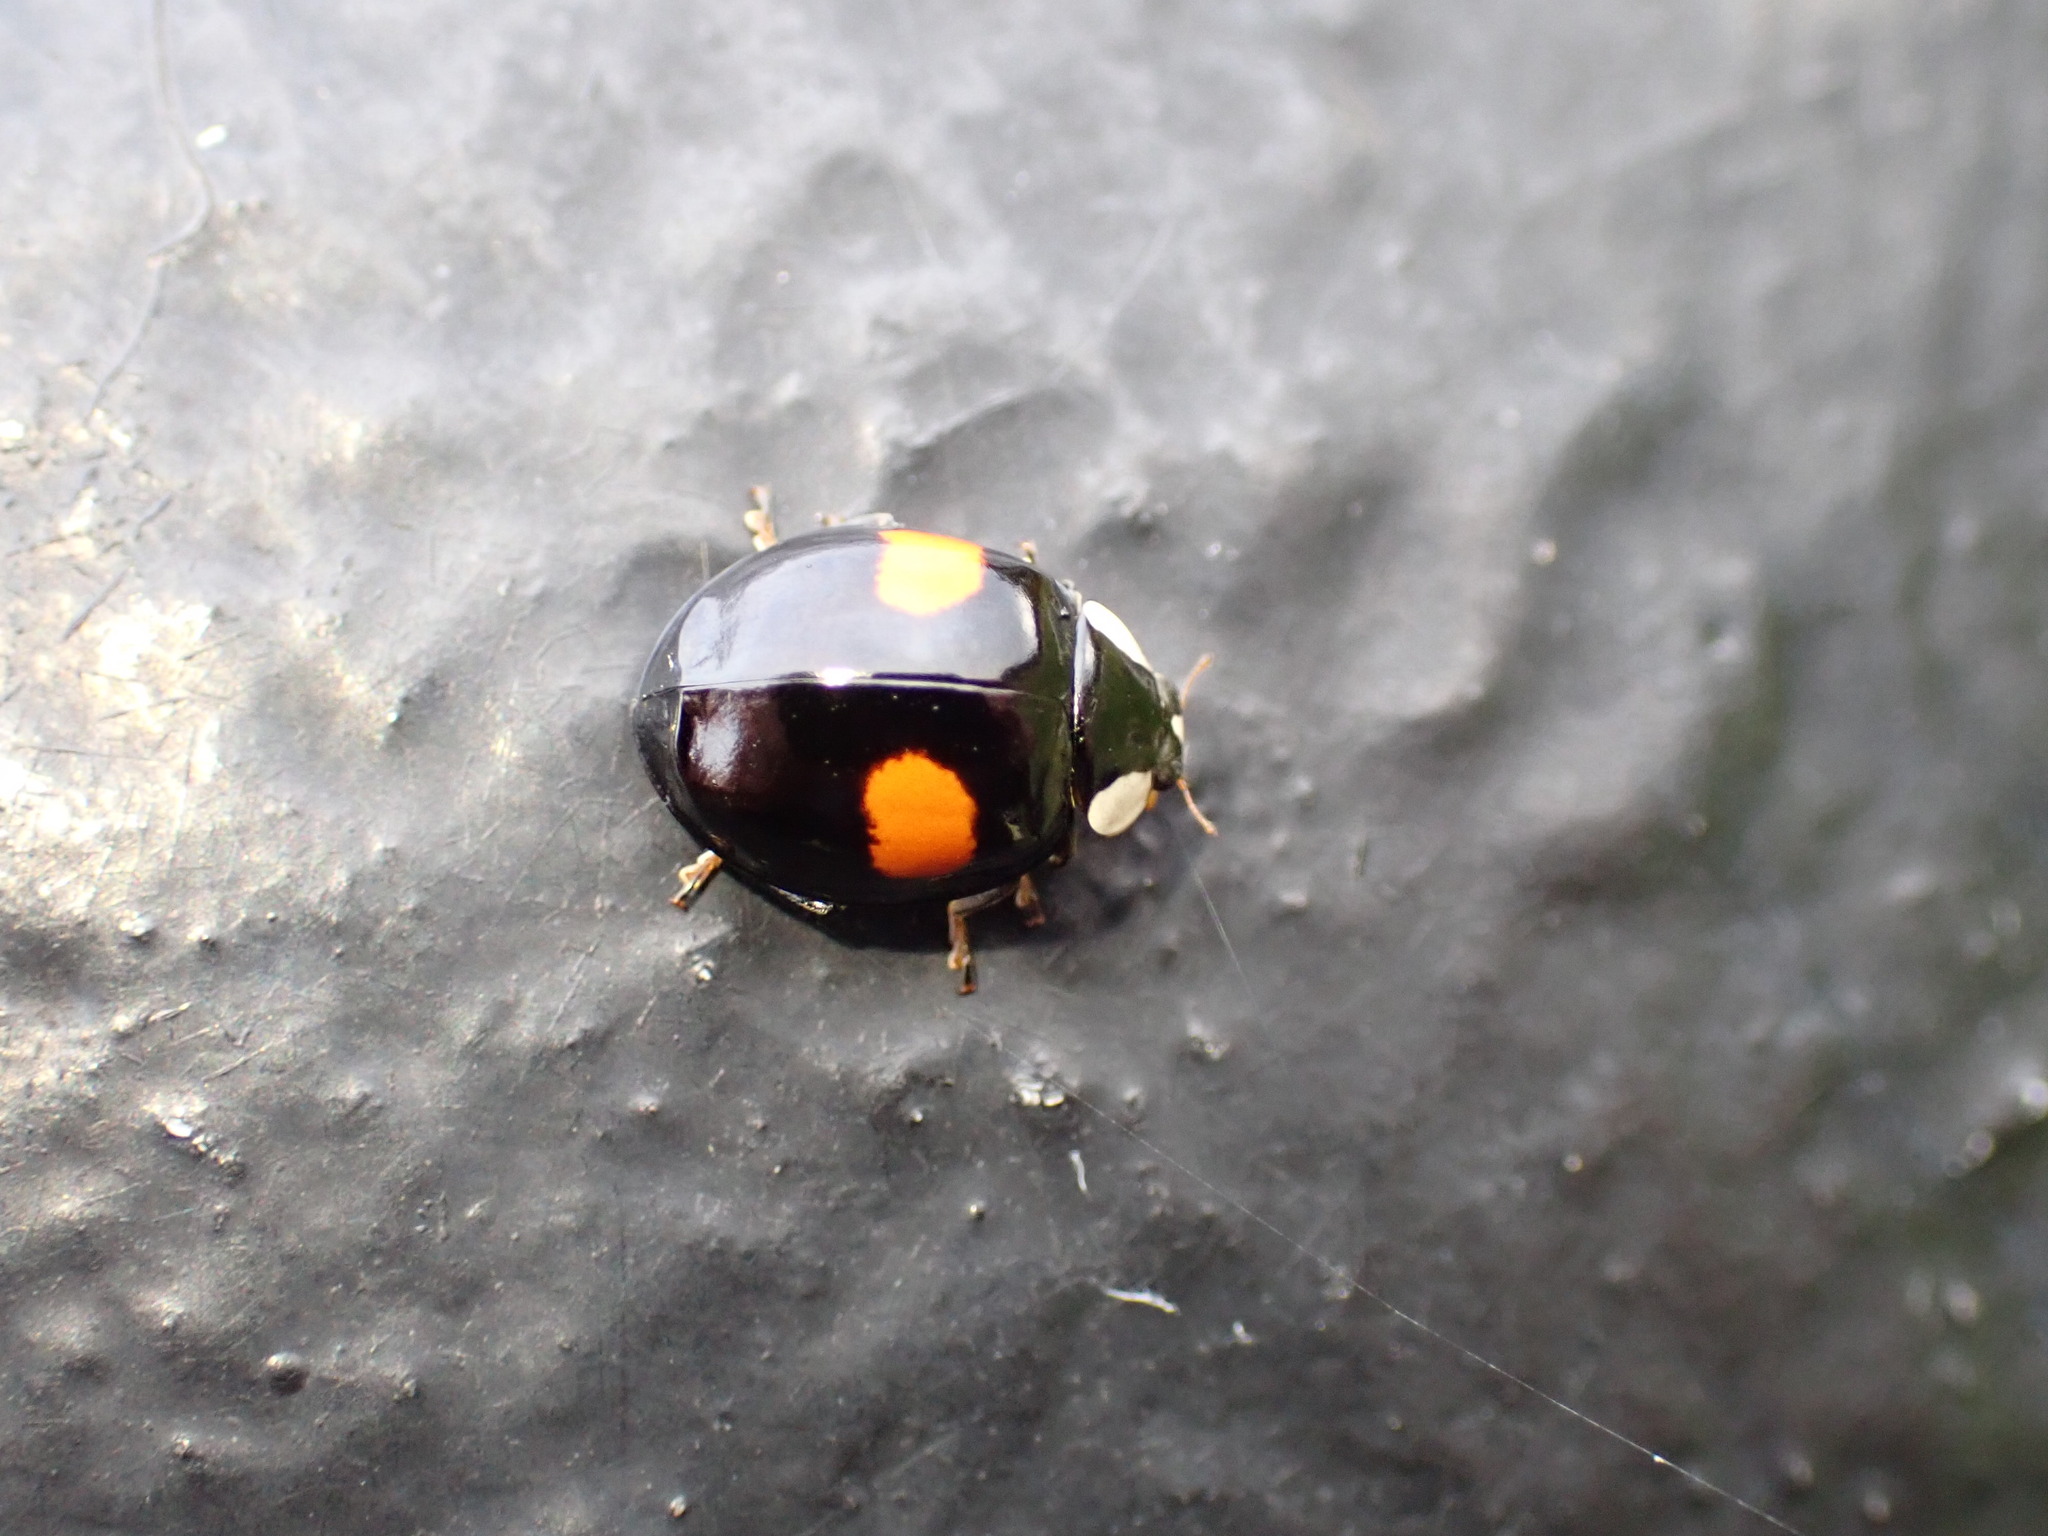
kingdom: Animalia
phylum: Arthropoda
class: Insecta
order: Coleoptera
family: Coccinellidae
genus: Harmonia
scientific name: Harmonia axyridis
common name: Harlequin ladybird
